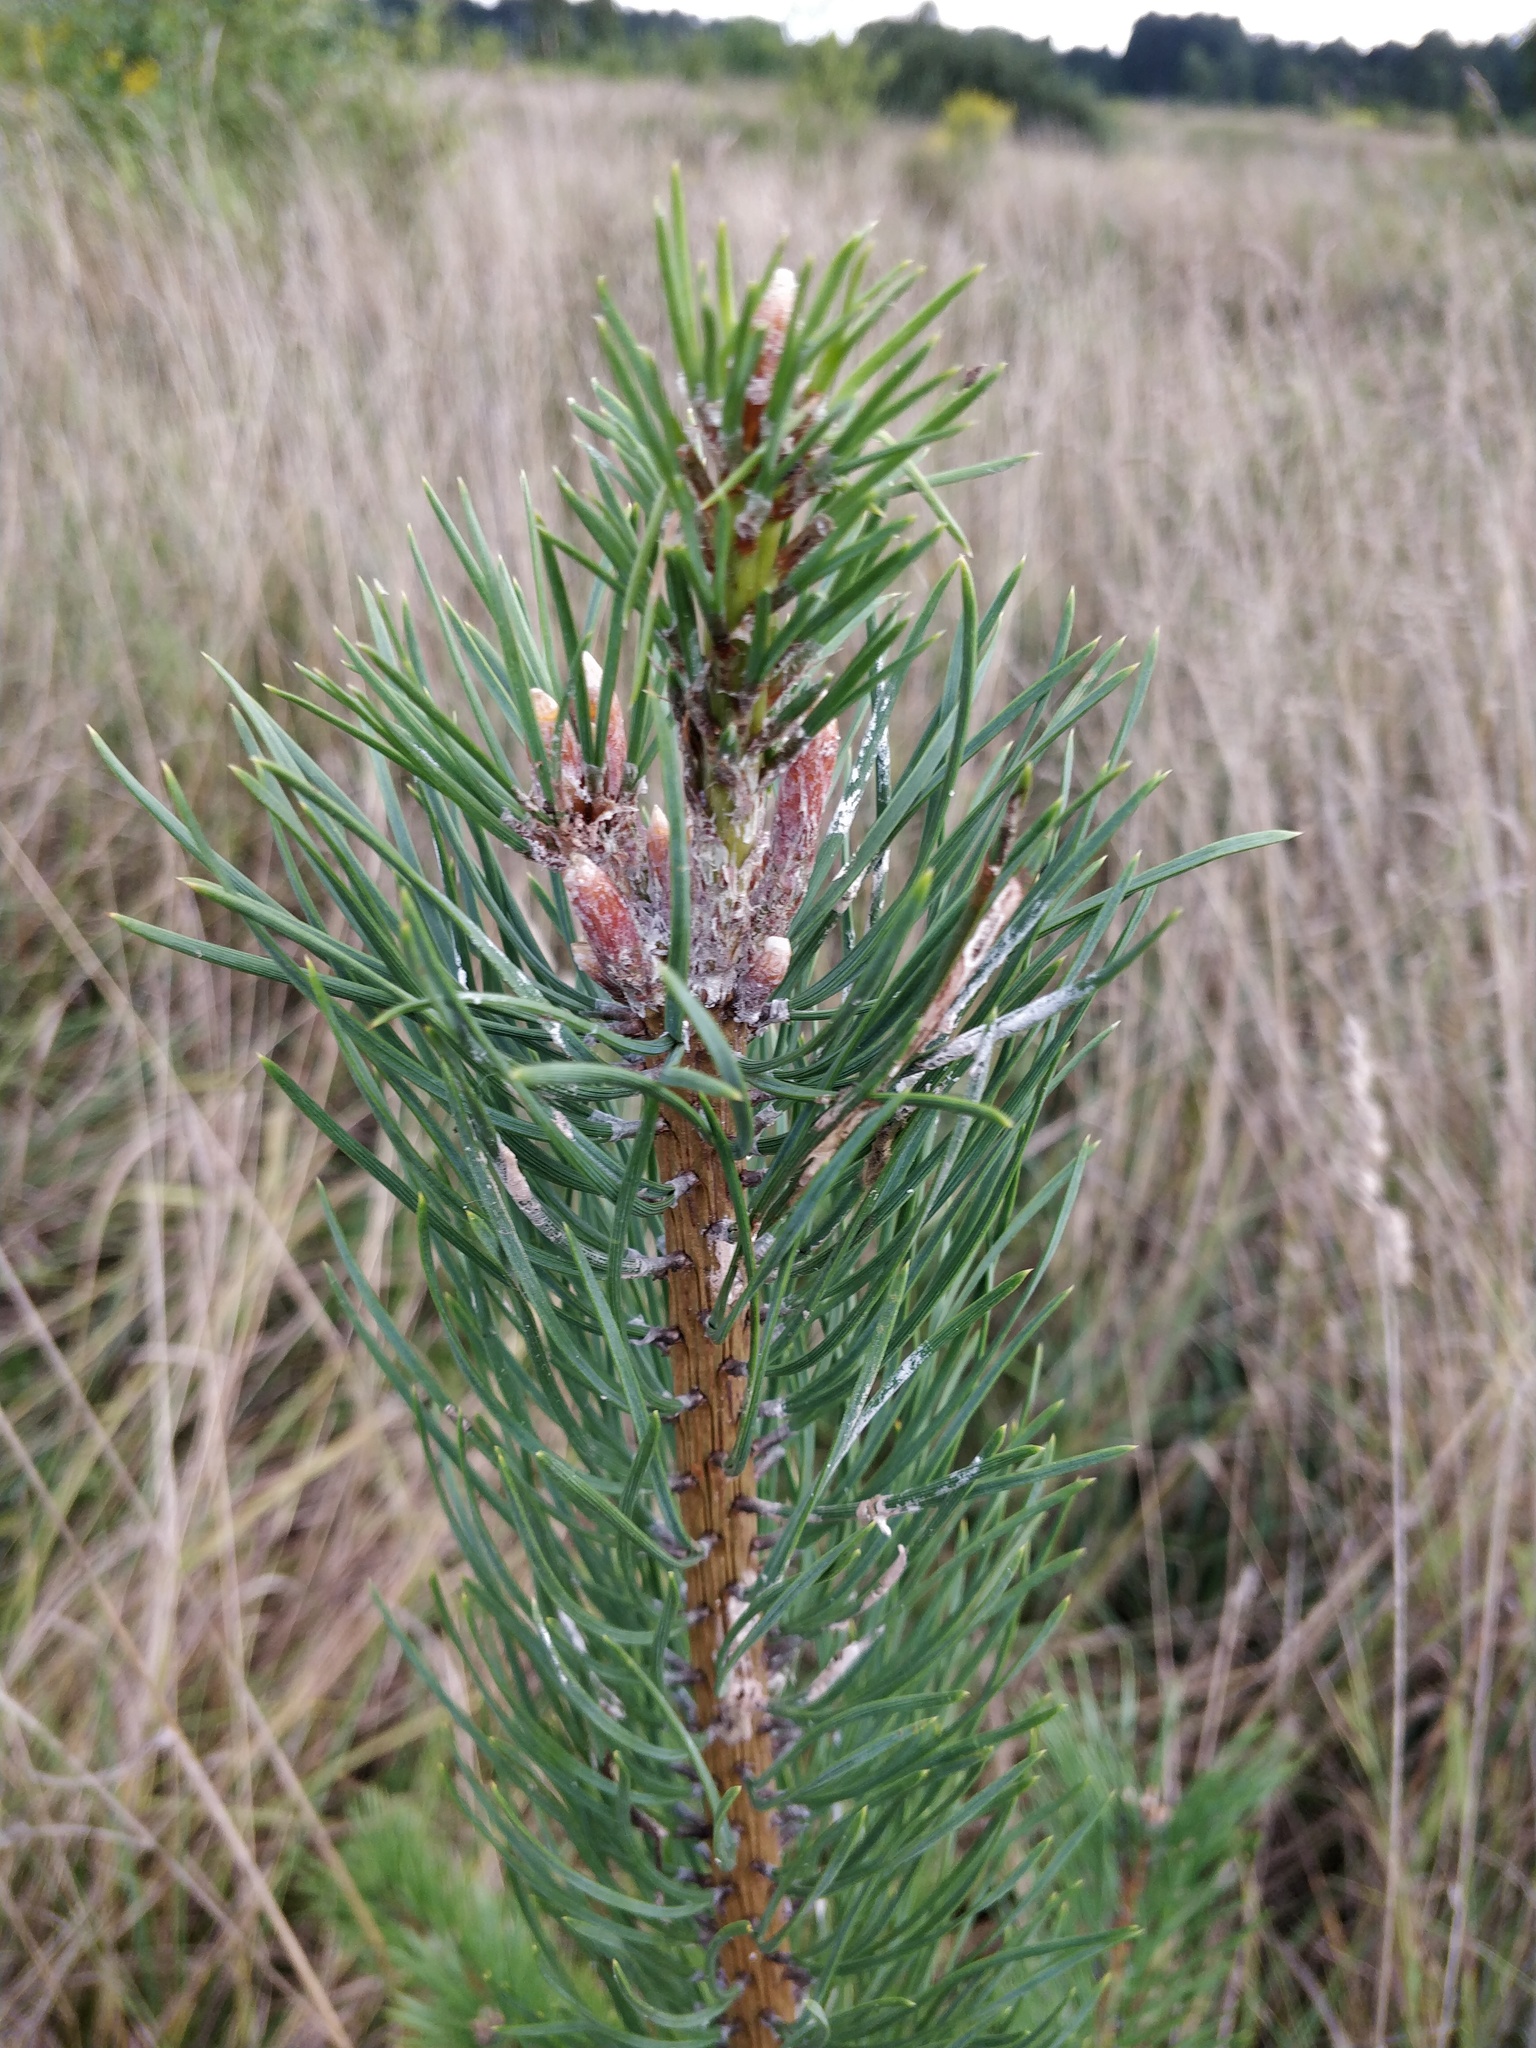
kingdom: Plantae
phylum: Tracheophyta
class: Pinopsida
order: Pinales
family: Pinaceae
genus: Pinus
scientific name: Pinus sylvestris
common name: Scots pine
